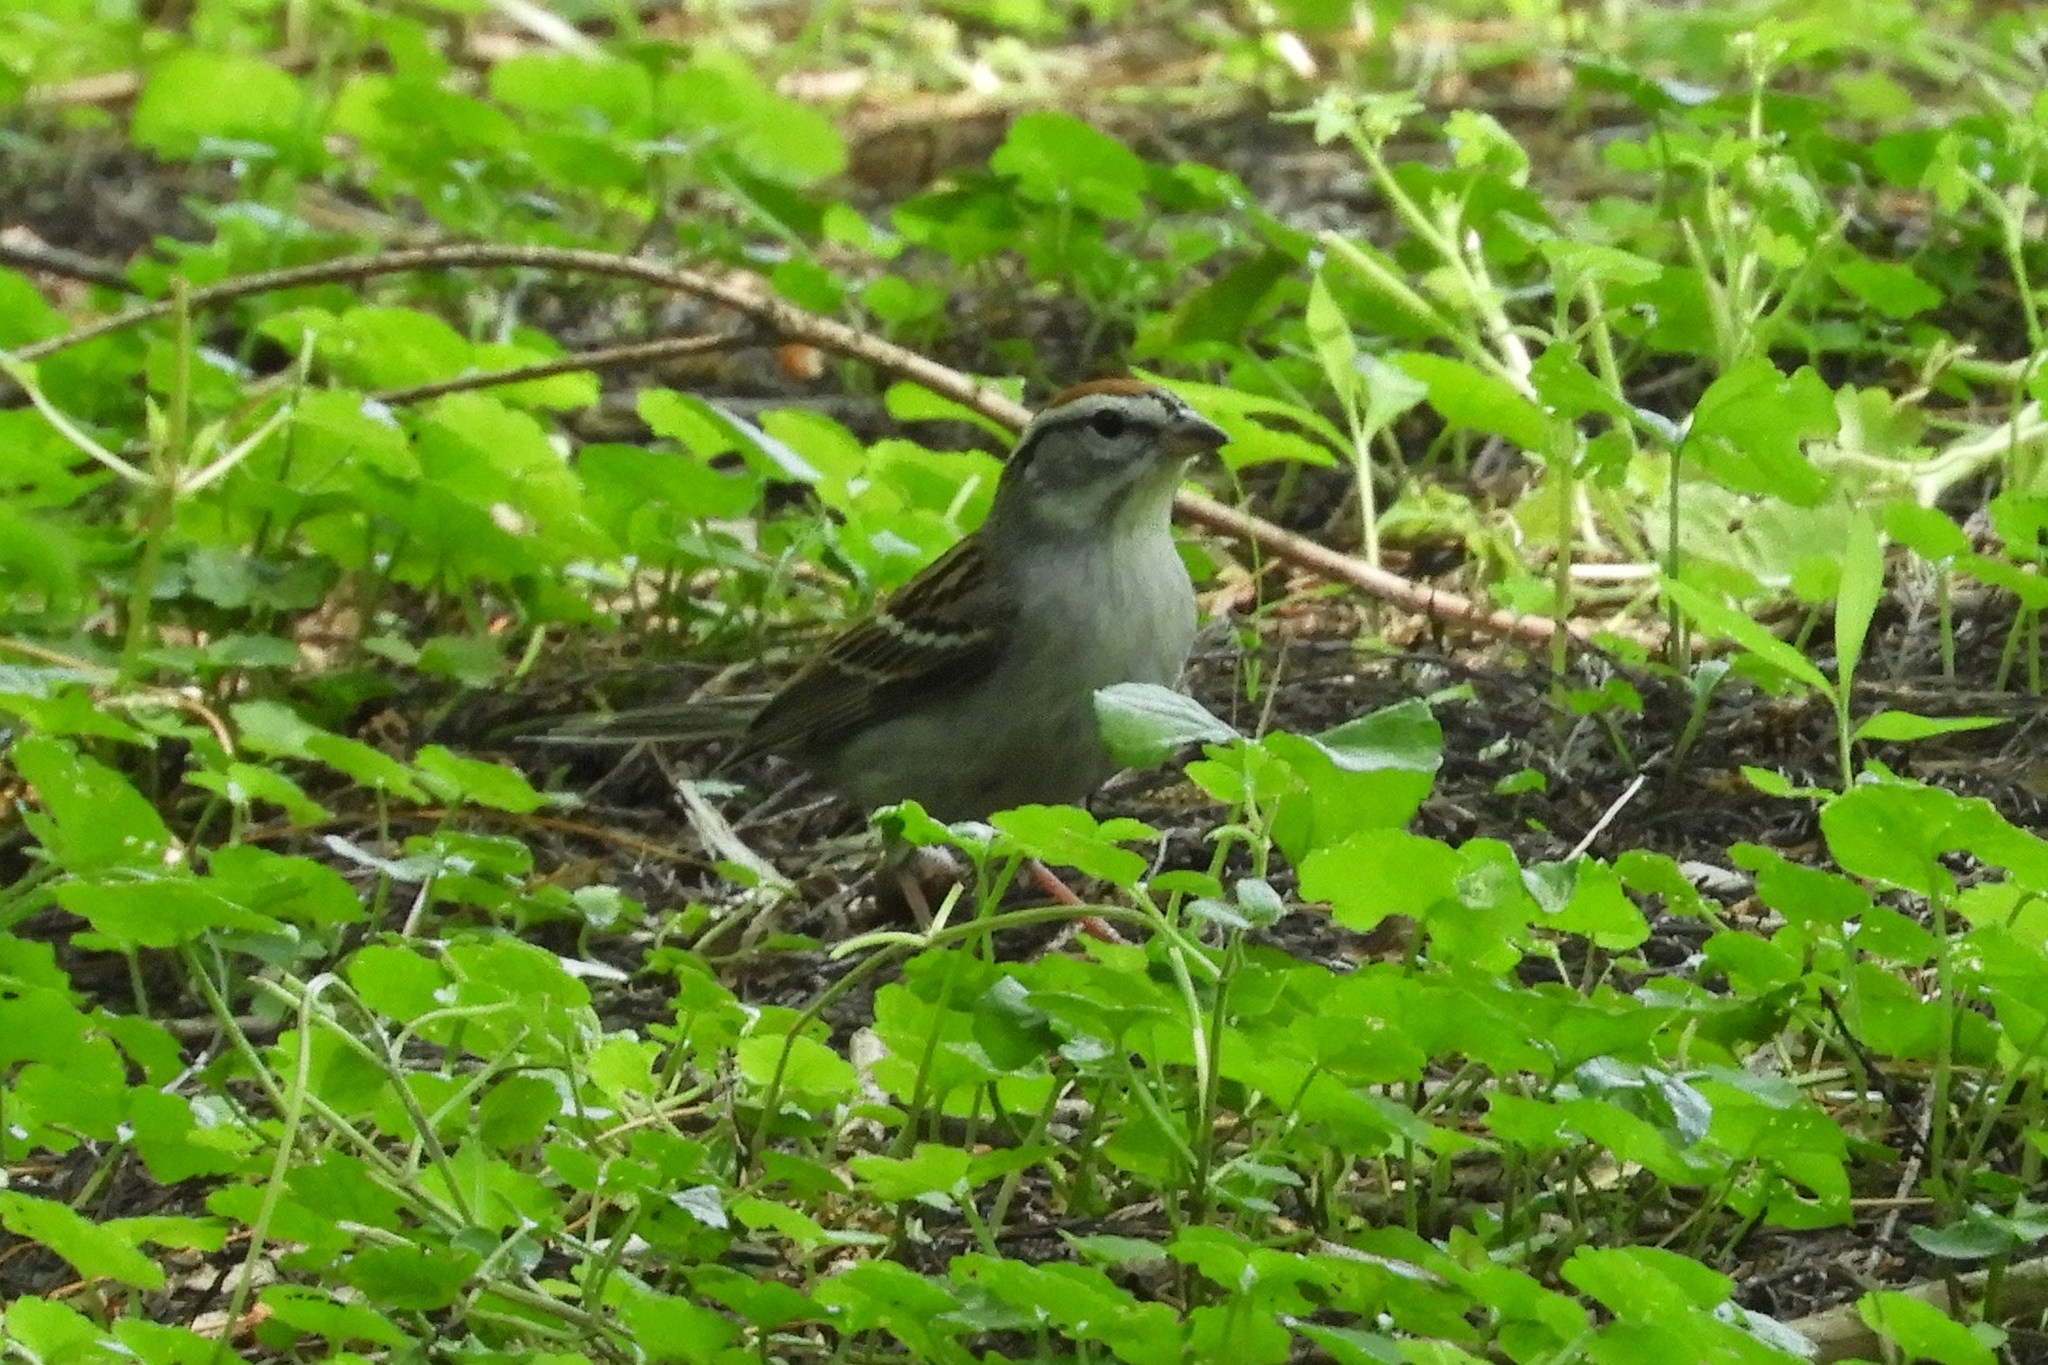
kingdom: Animalia
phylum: Chordata
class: Aves
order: Passeriformes
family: Passerellidae
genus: Spizella
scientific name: Spizella passerina
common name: Chipping sparrow
